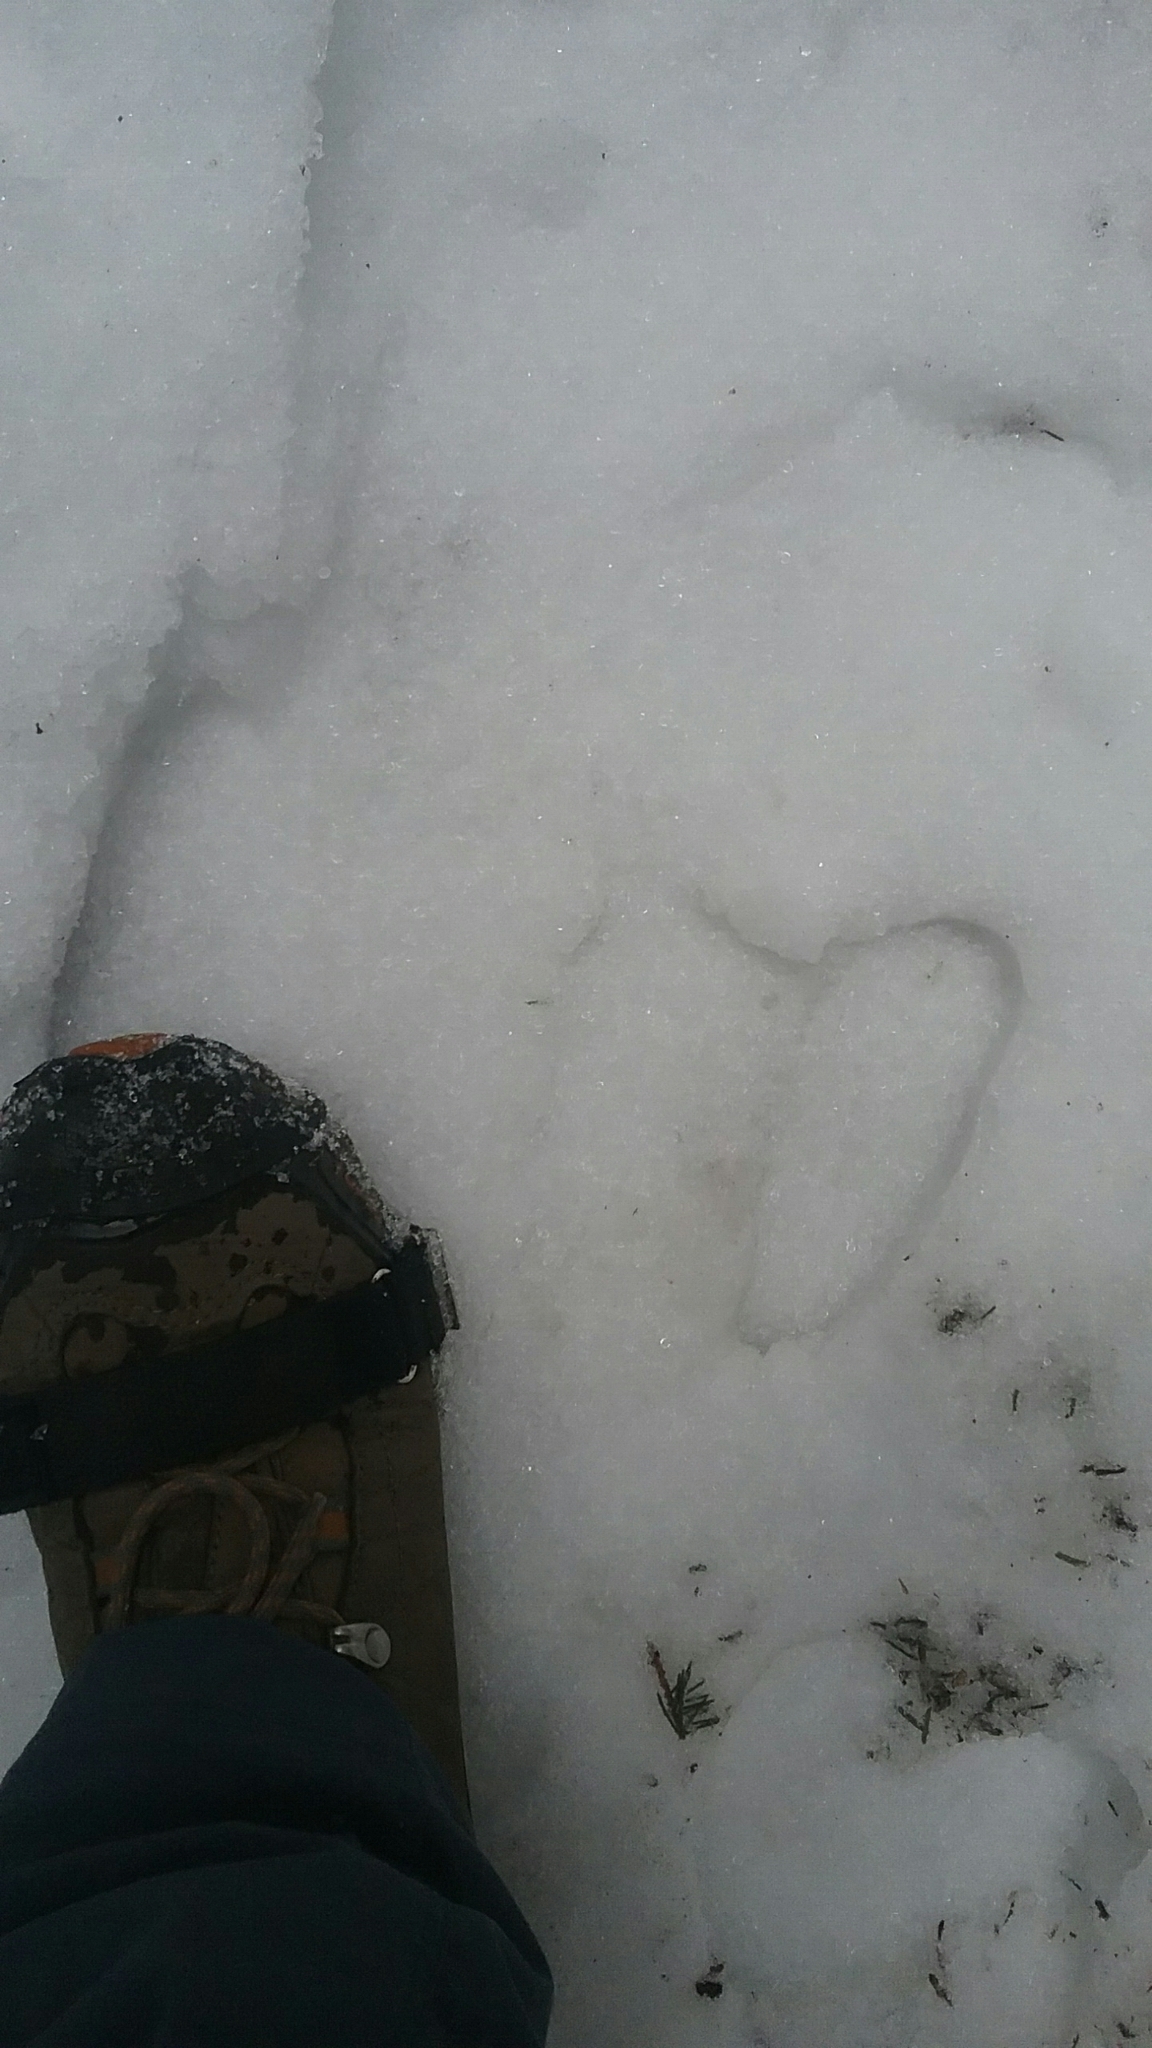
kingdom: Animalia
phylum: Chordata
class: Mammalia
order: Artiodactyla
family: Cervidae
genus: Alces
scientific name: Alces alces
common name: Moose
